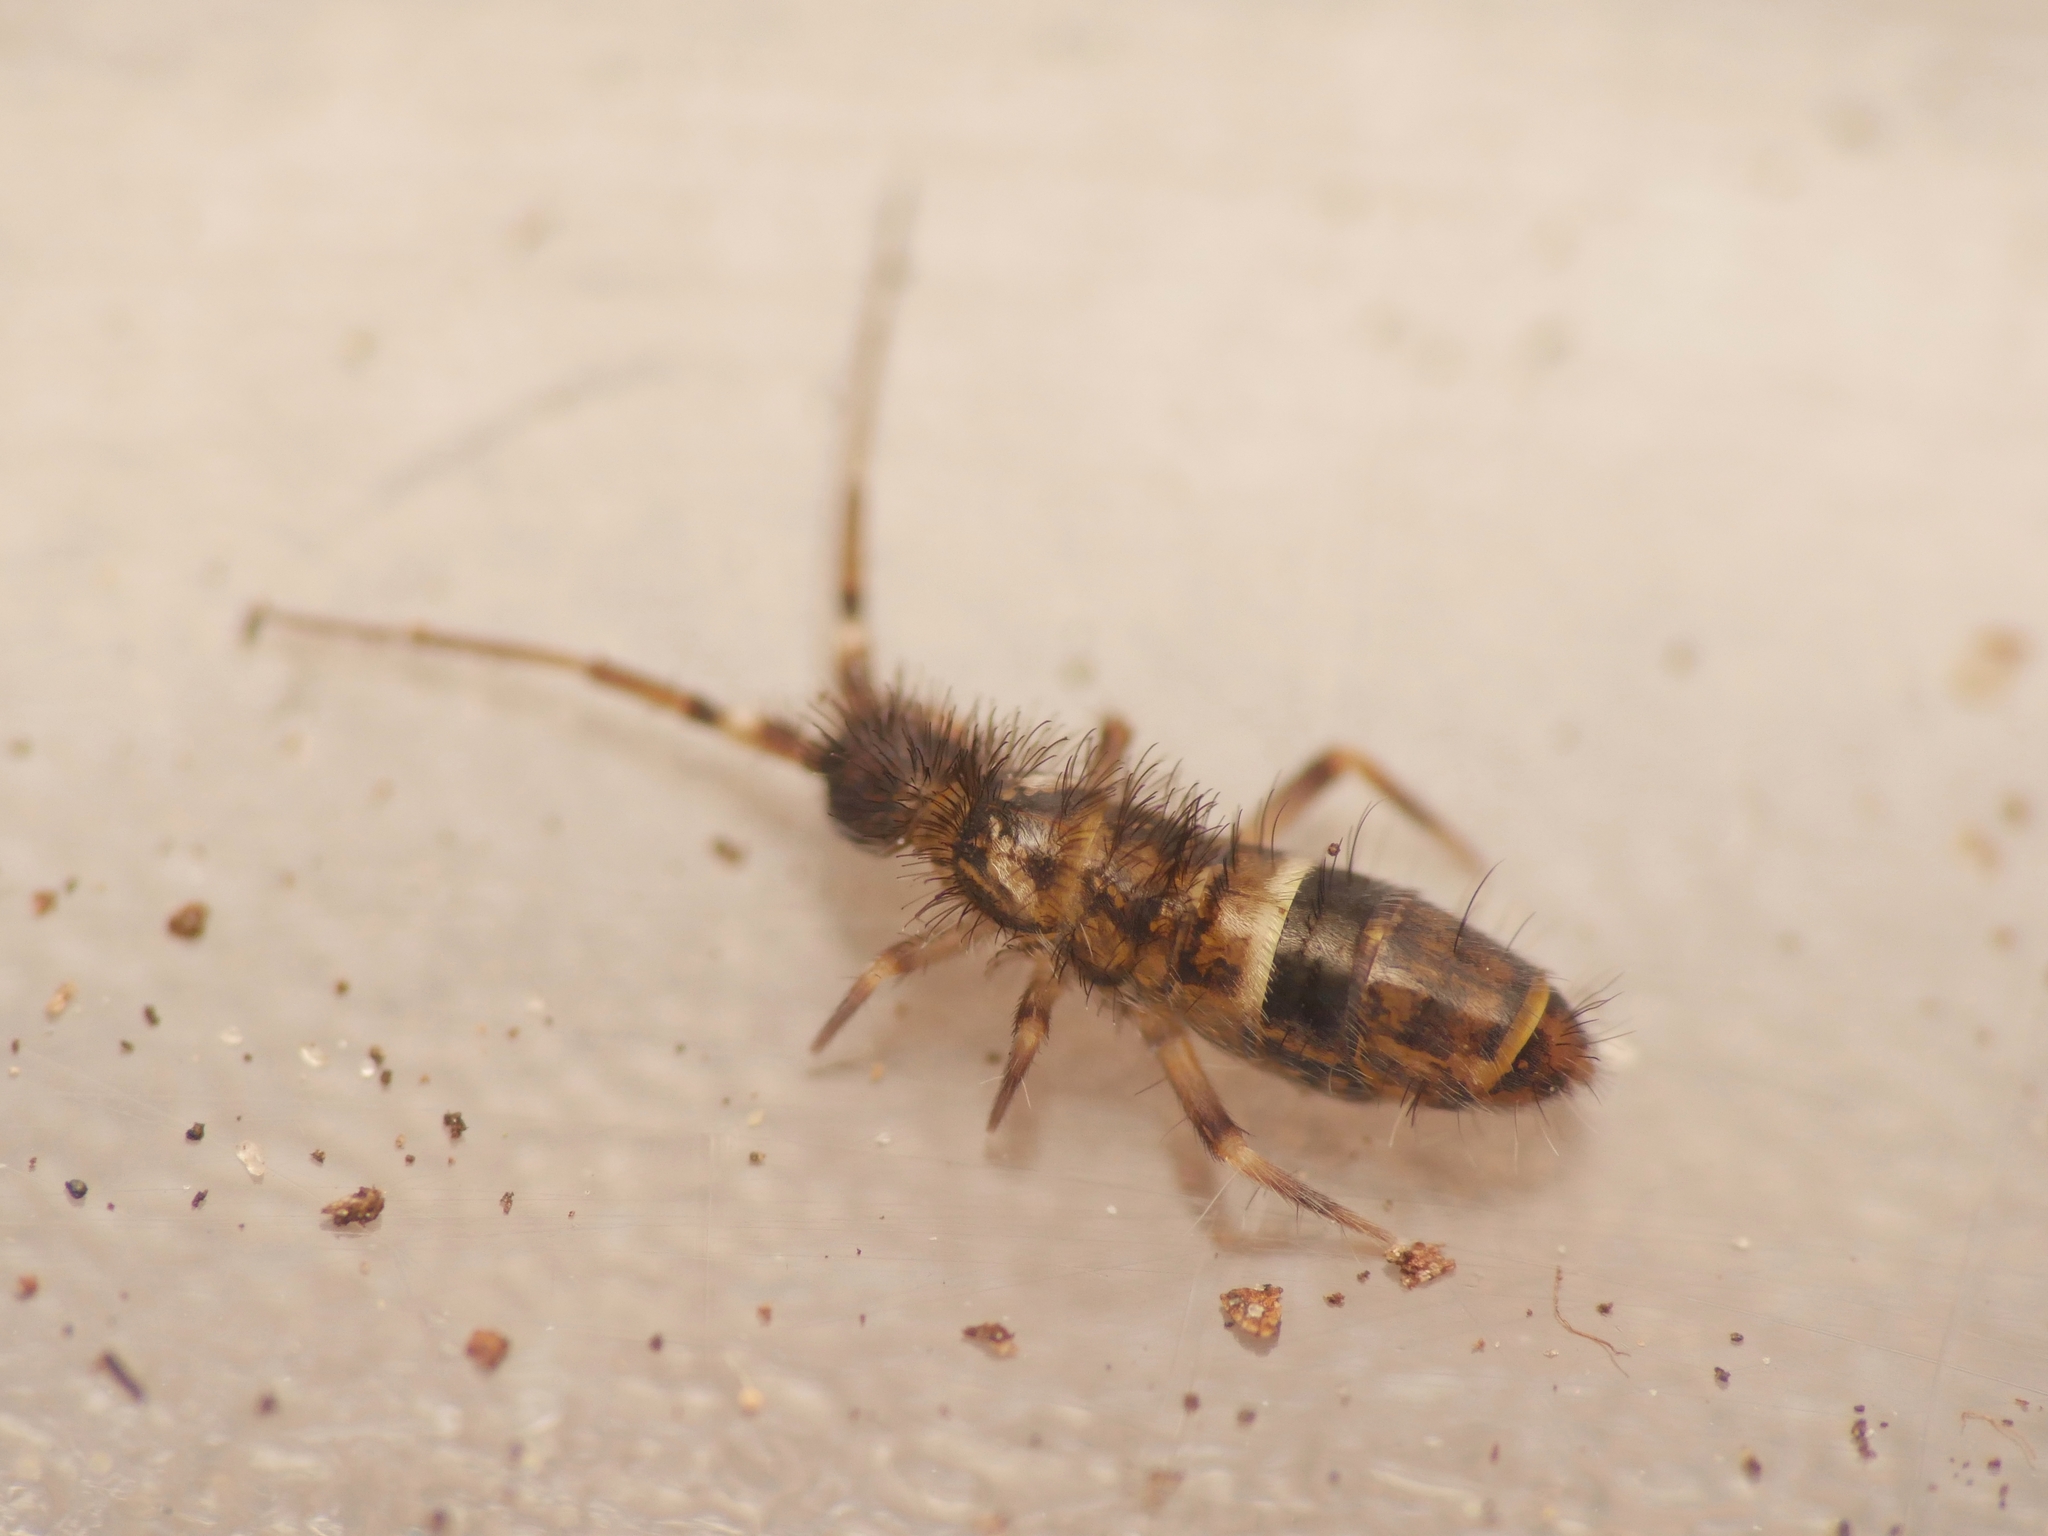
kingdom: Animalia
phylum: Arthropoda
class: Collembola
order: Entomobryomorpha
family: Orchesellidae
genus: Orchesella
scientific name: Orchesella cincta
